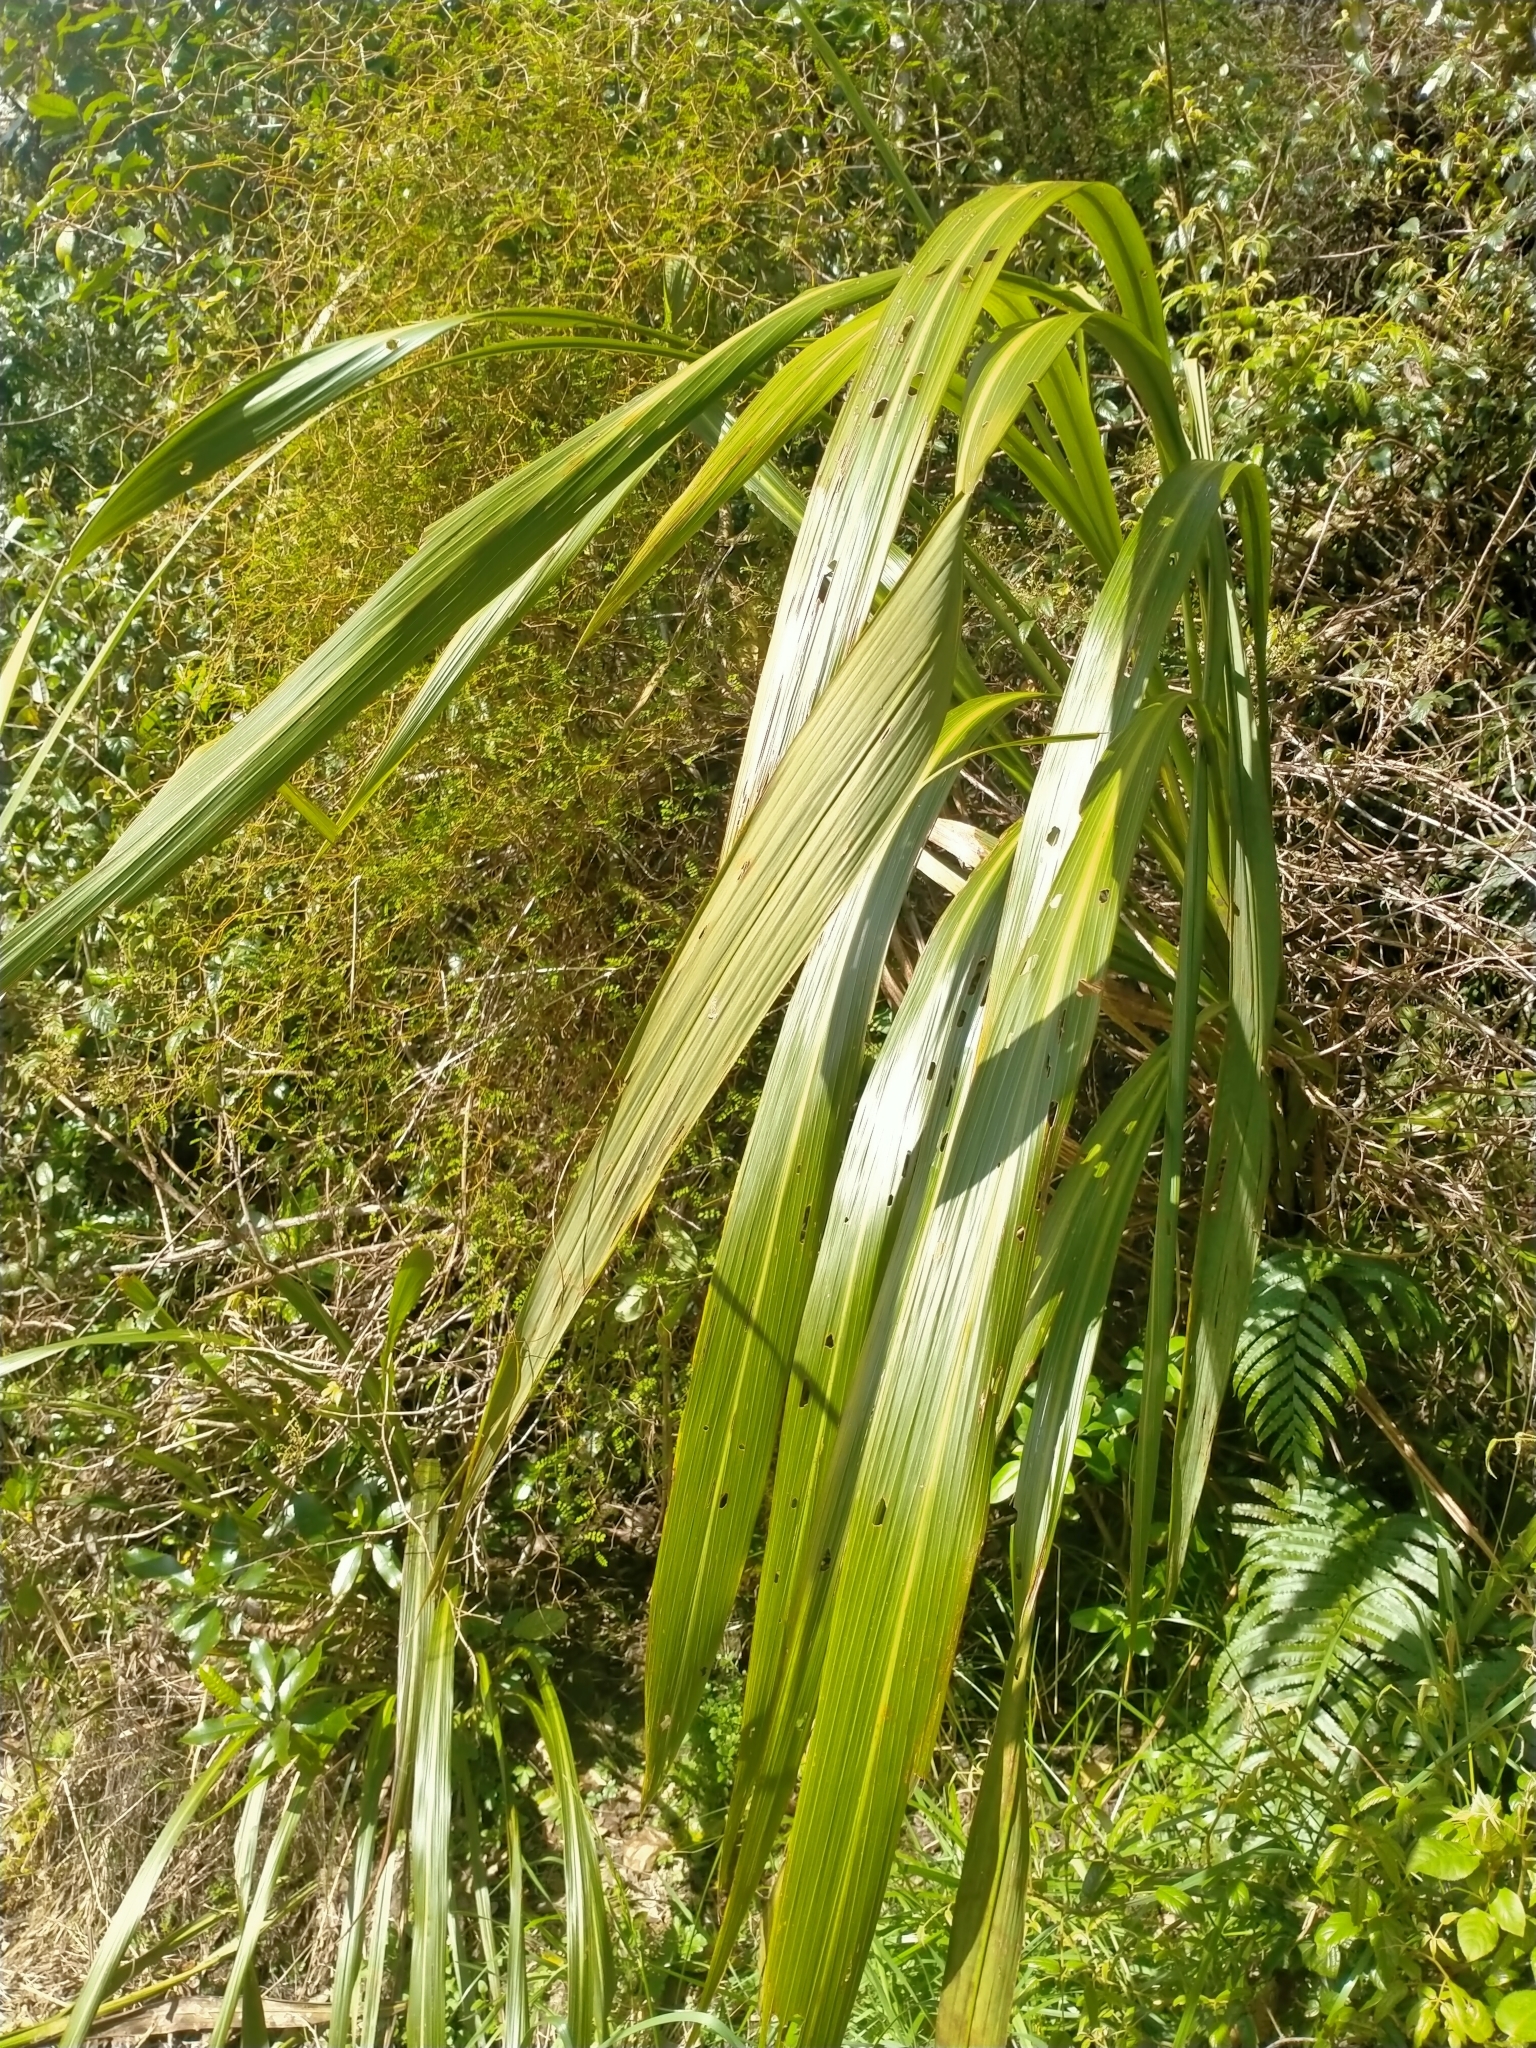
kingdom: Plantae
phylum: Tracheophyta
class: Liliopsida
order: Asparagales
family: Asparagaceae
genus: Cordyline
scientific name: Cordyline banksii
